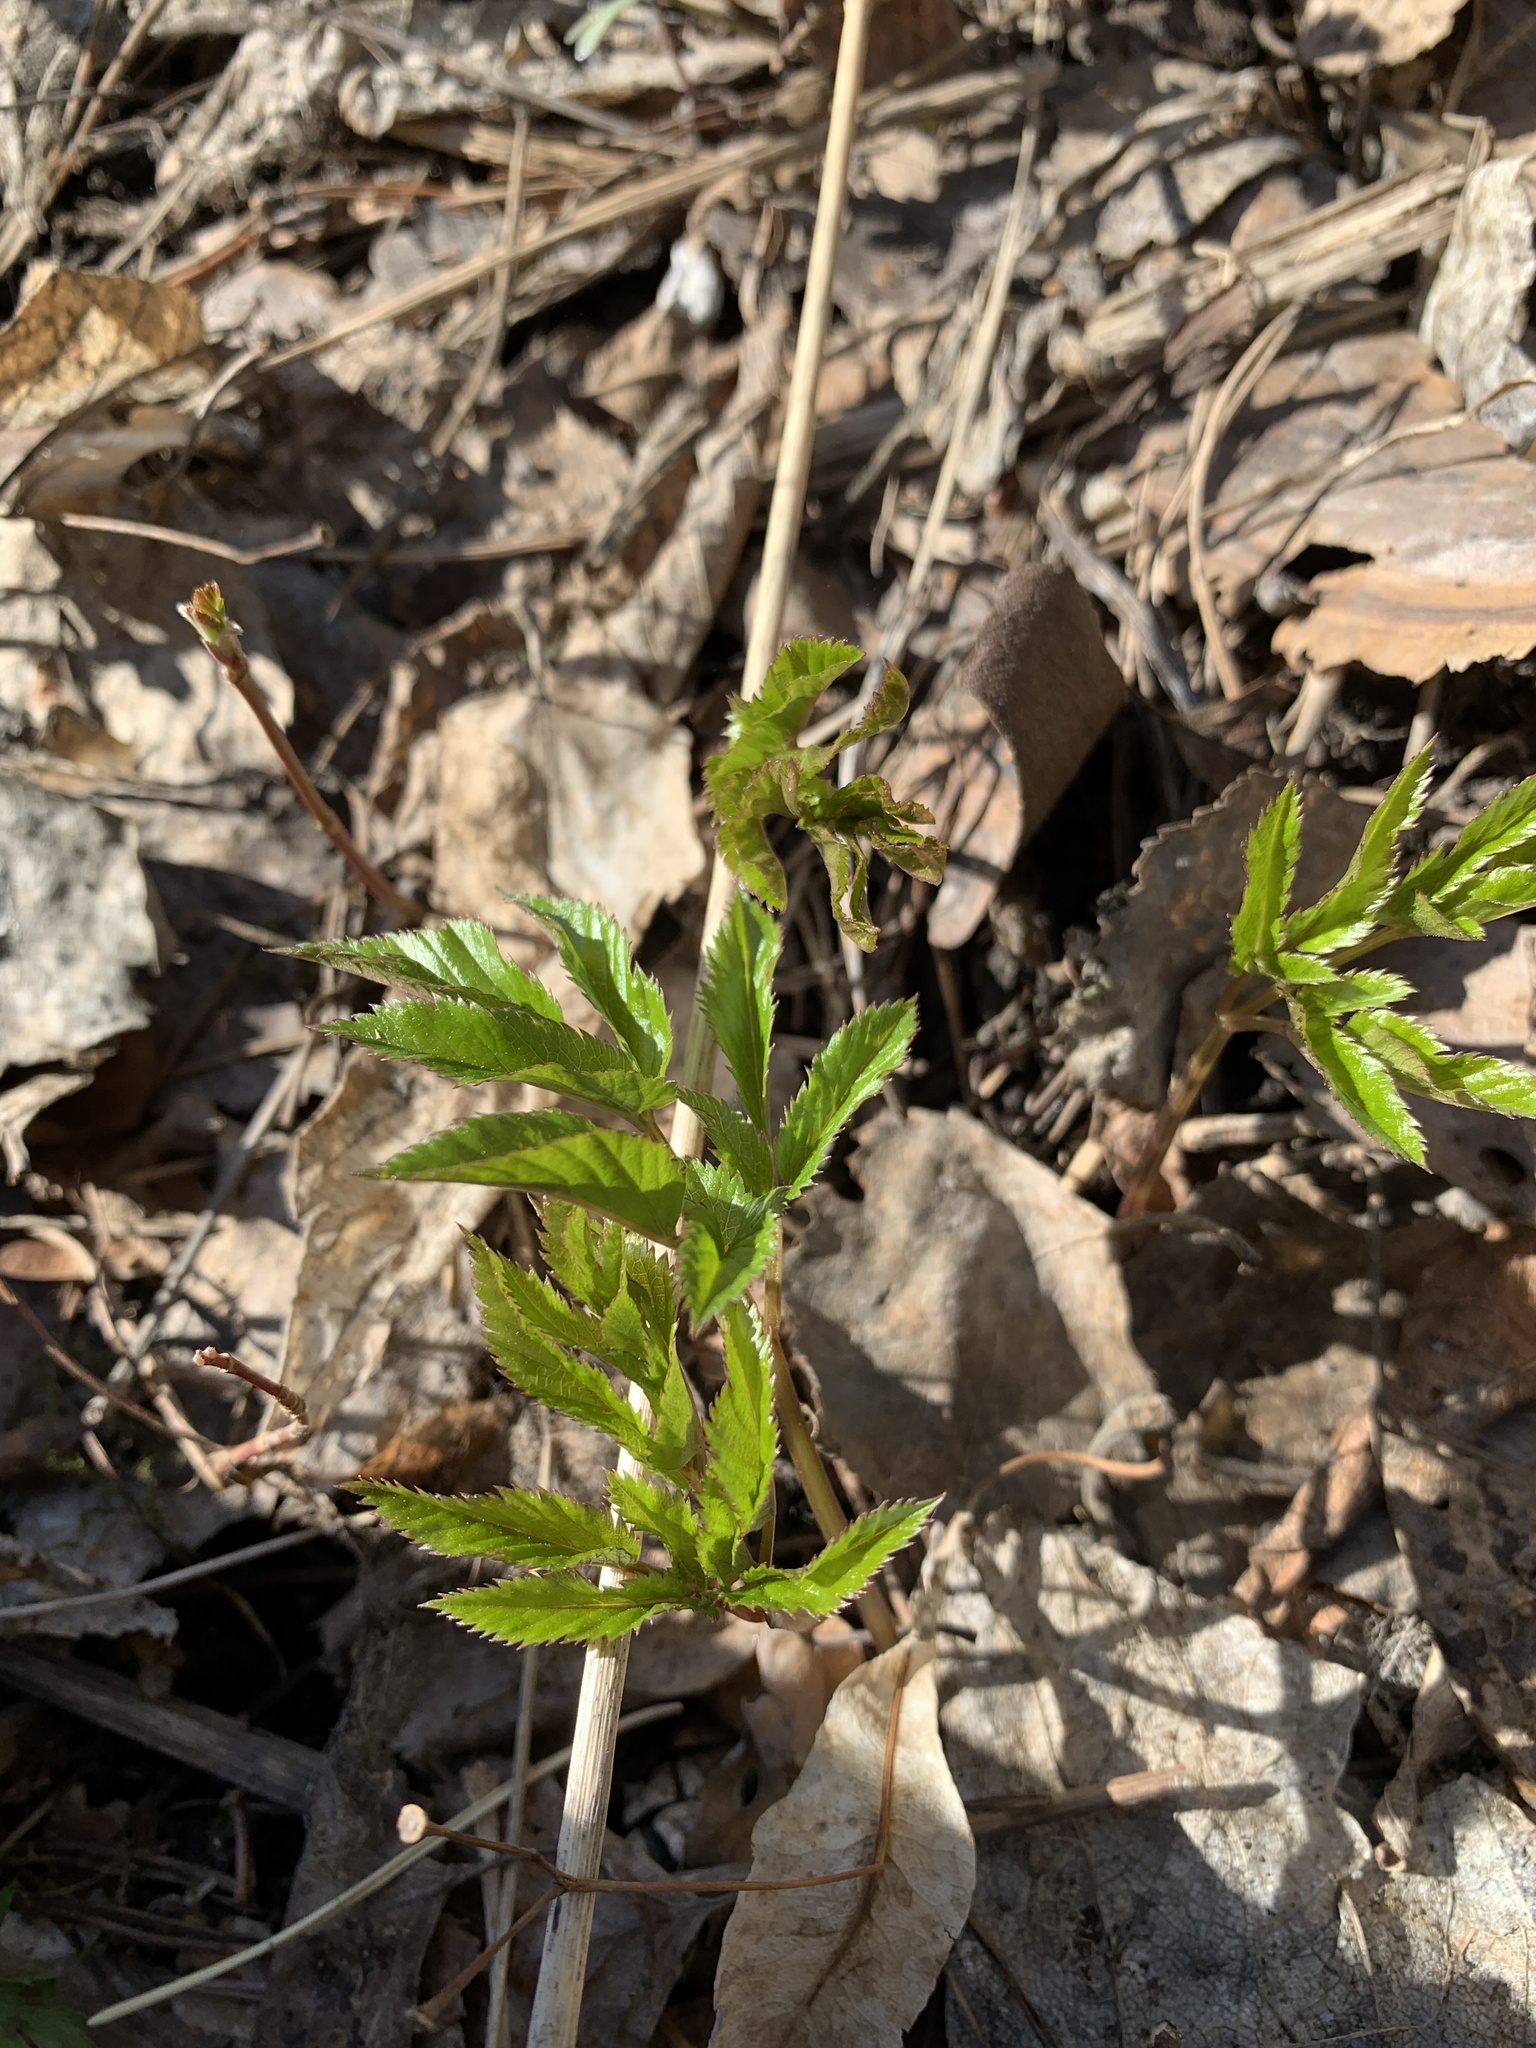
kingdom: Plantae
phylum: Tracheophyta
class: Magnoliopsida
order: Apiales
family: Apiaceae
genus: Aegopodium
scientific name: Aegopodium podagraria
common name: Ground-elder
